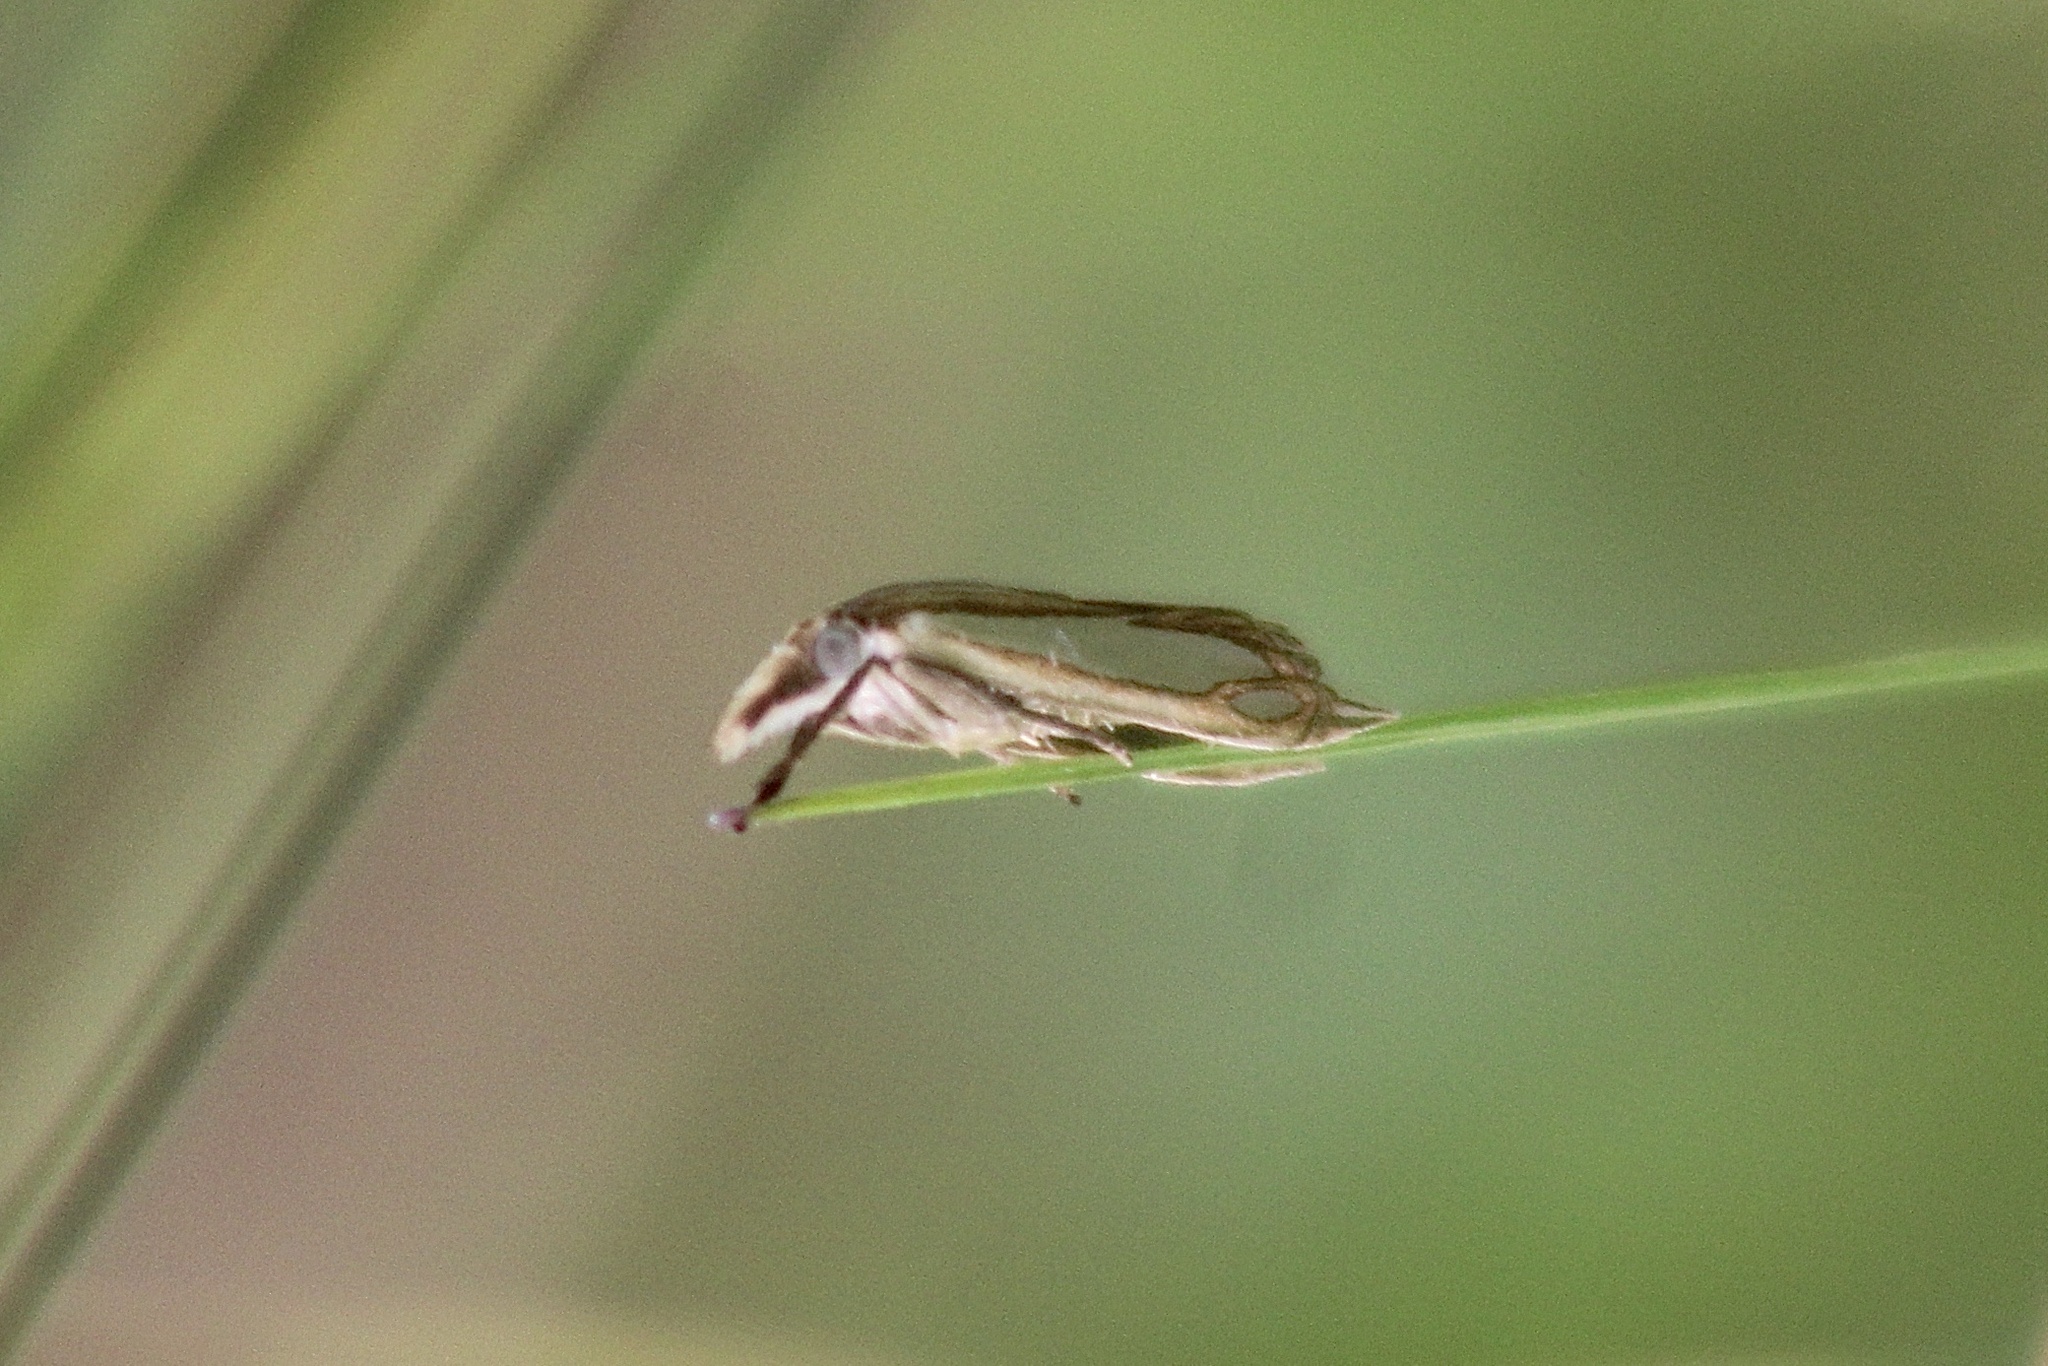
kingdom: Animalia
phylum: Arthropoda
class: Insecta
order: Lepidoptera
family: Crambidae
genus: Crambus
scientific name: Crambus satrapellus
